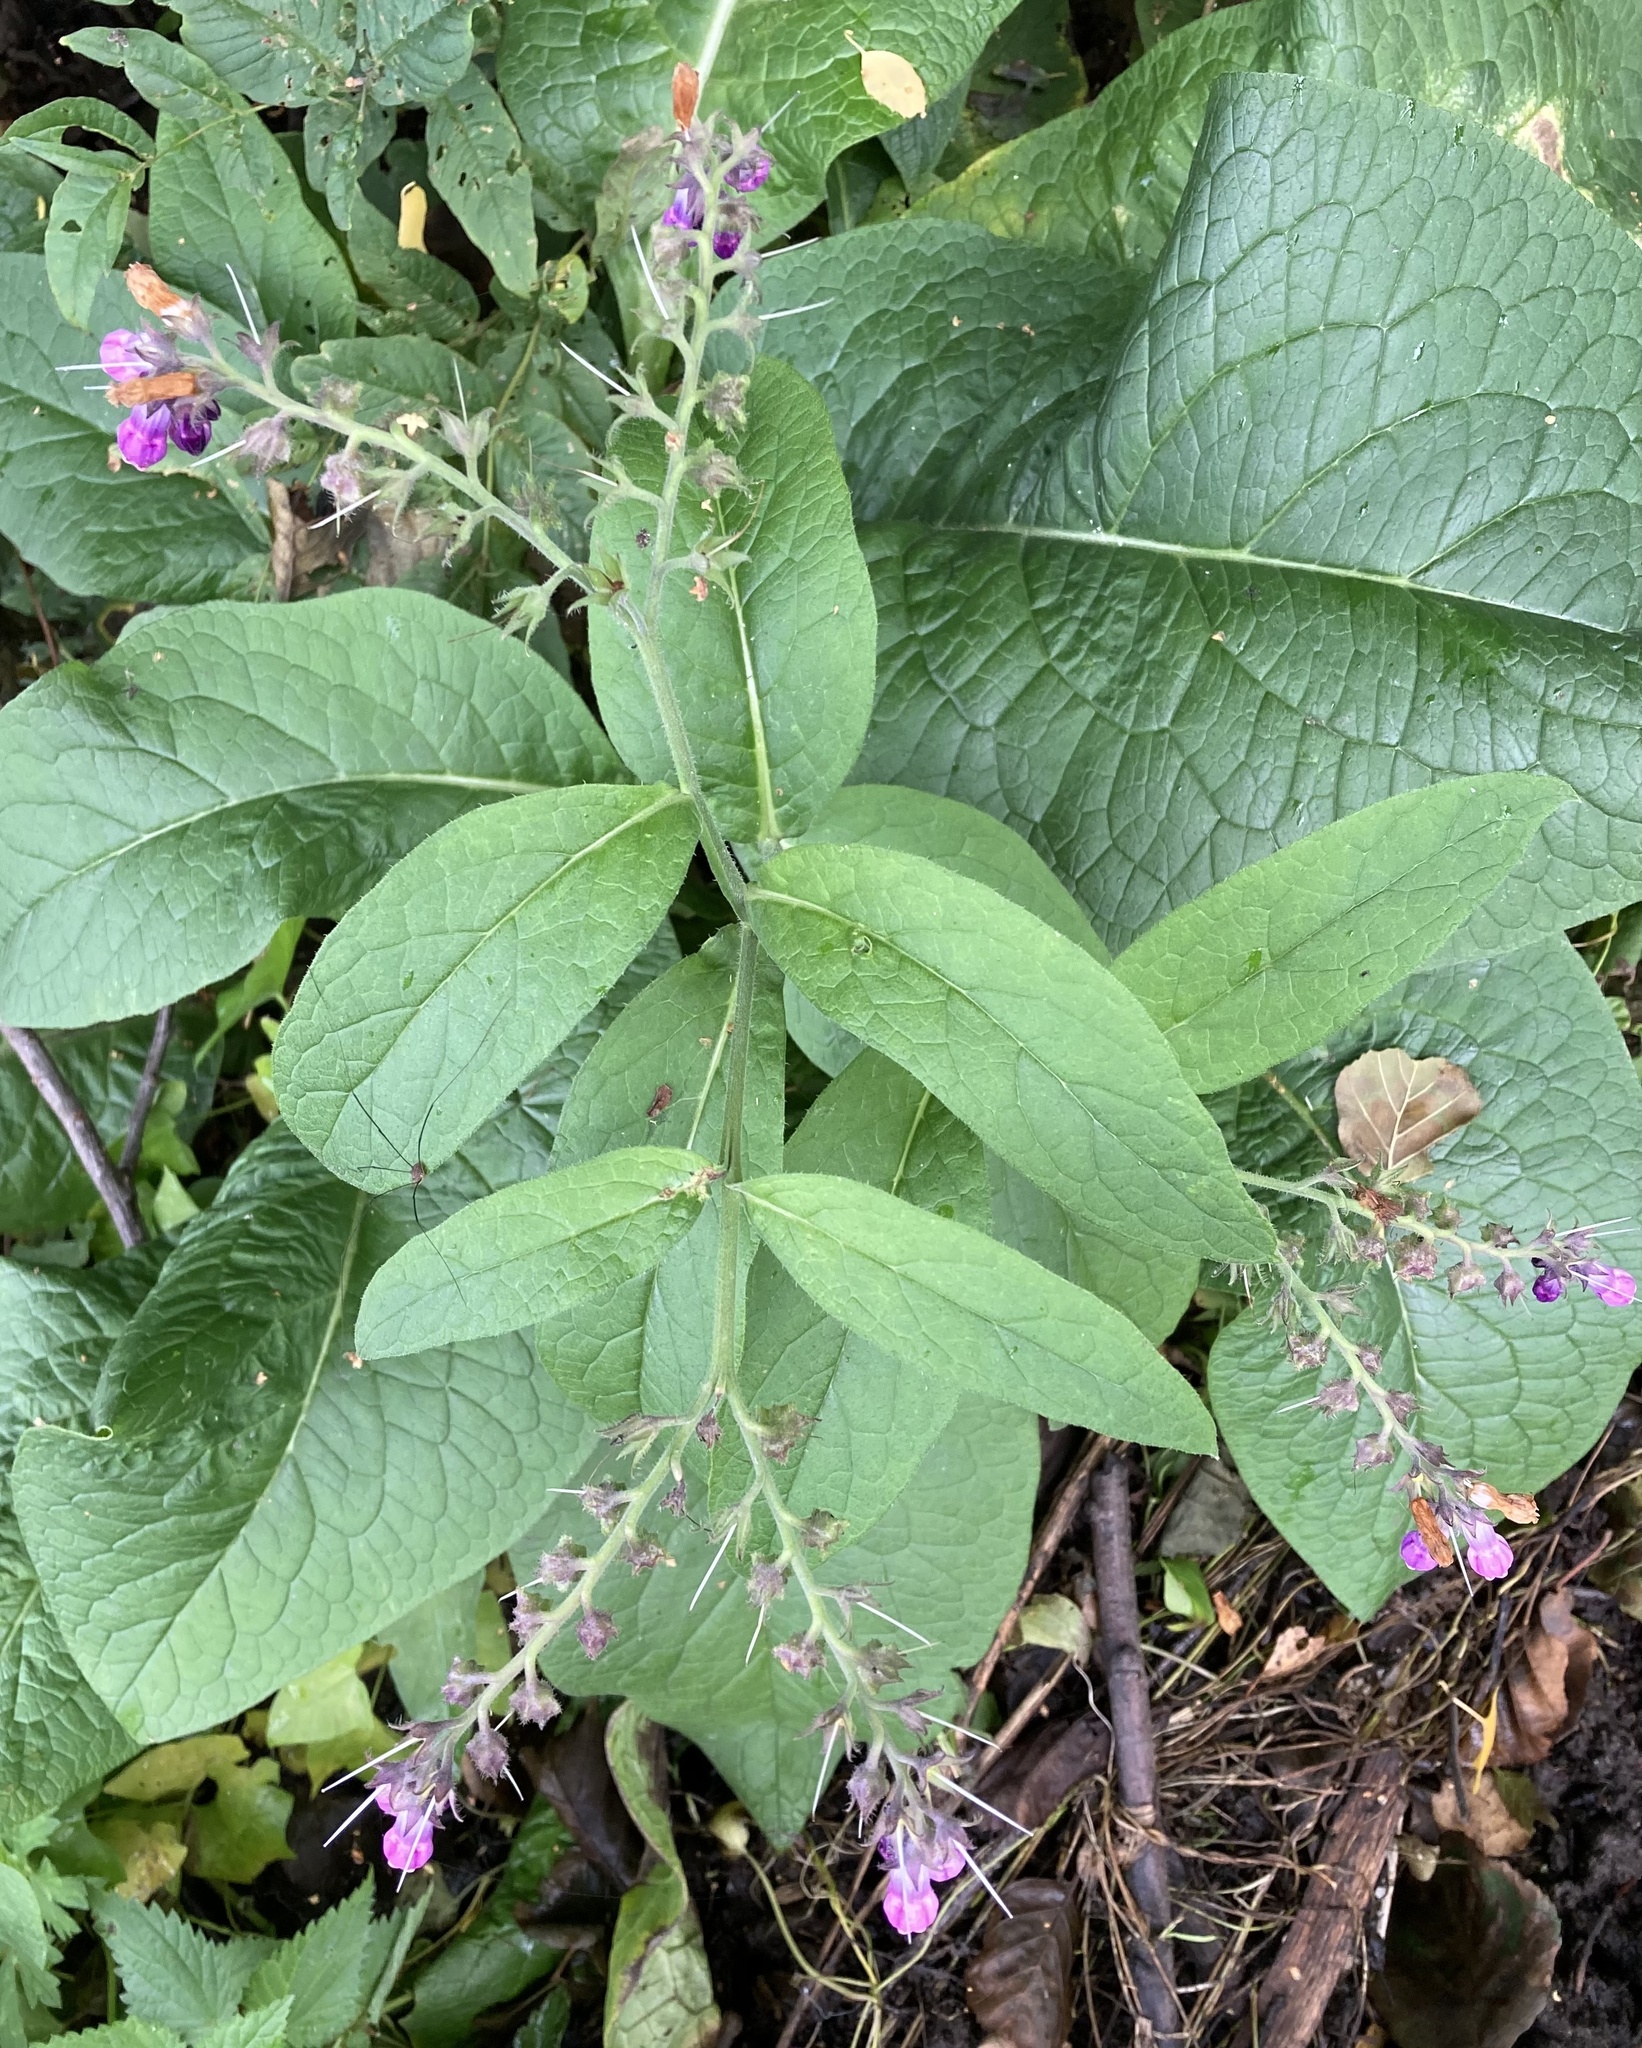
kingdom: Plantae
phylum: Tracheophyta
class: Magnoliopsida
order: Boraginales
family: Boraginaceae
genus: Symphytum
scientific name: Symphytum officinale
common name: Common comfrey
